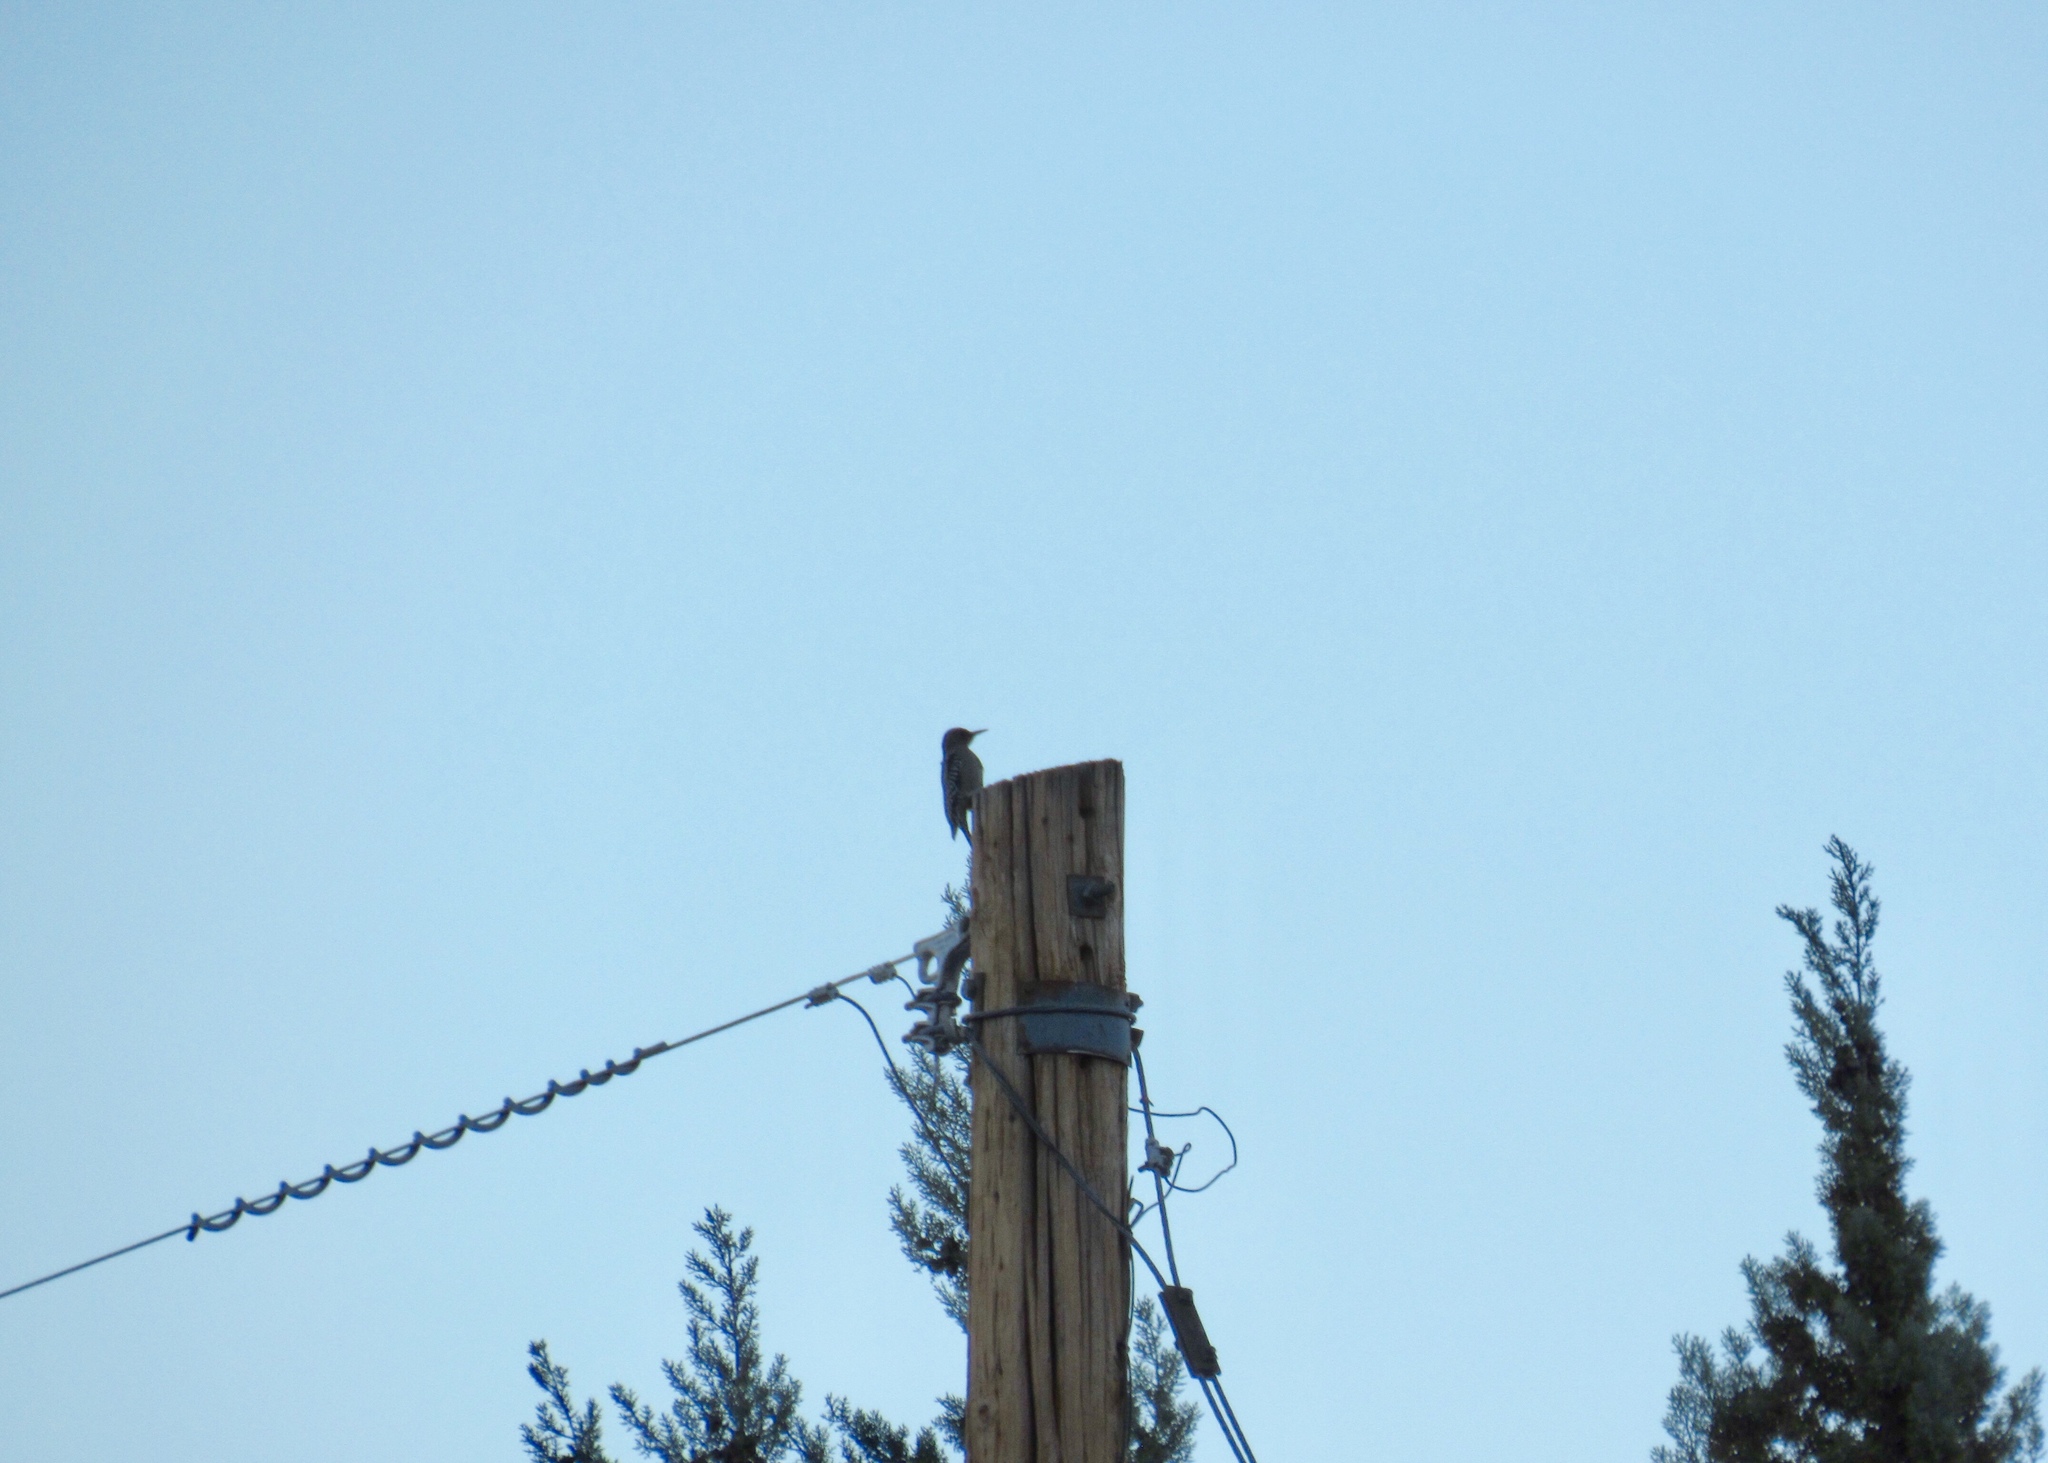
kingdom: Animalia
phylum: Chordata
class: Aves
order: Piciformes
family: Picidae
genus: Melanerpes
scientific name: Melanerpes uropygialis
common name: Gila woodpecker
